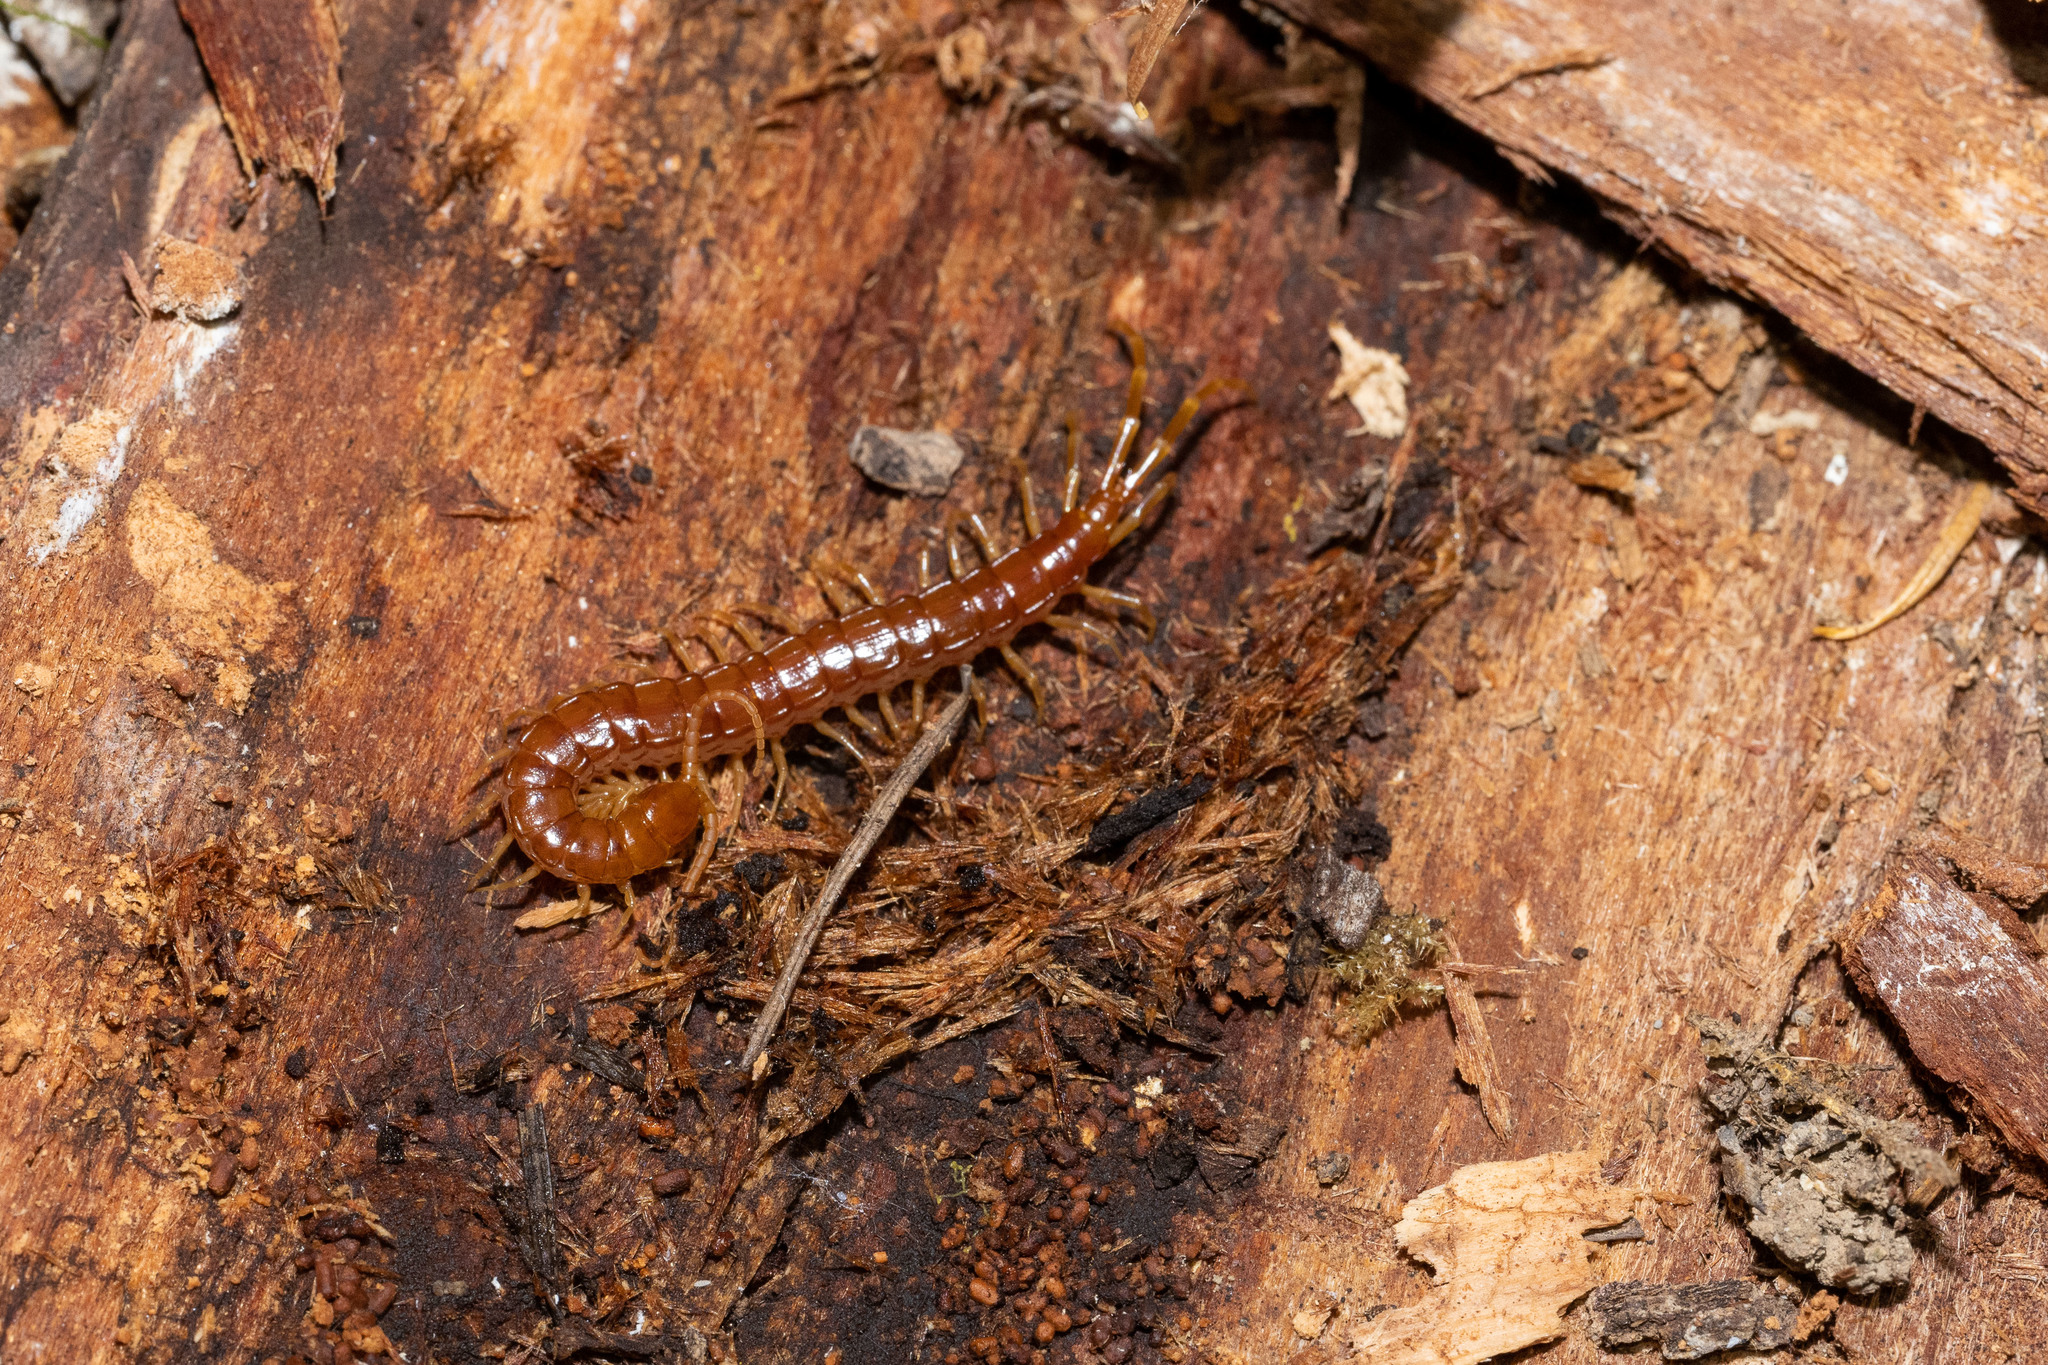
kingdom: Animalia
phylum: Arthropoda
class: Chilopoda
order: Scolopendromorpha
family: Scolopocryptopidae
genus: Scolopocryptops
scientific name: Scolopocryptops spinicaudus
